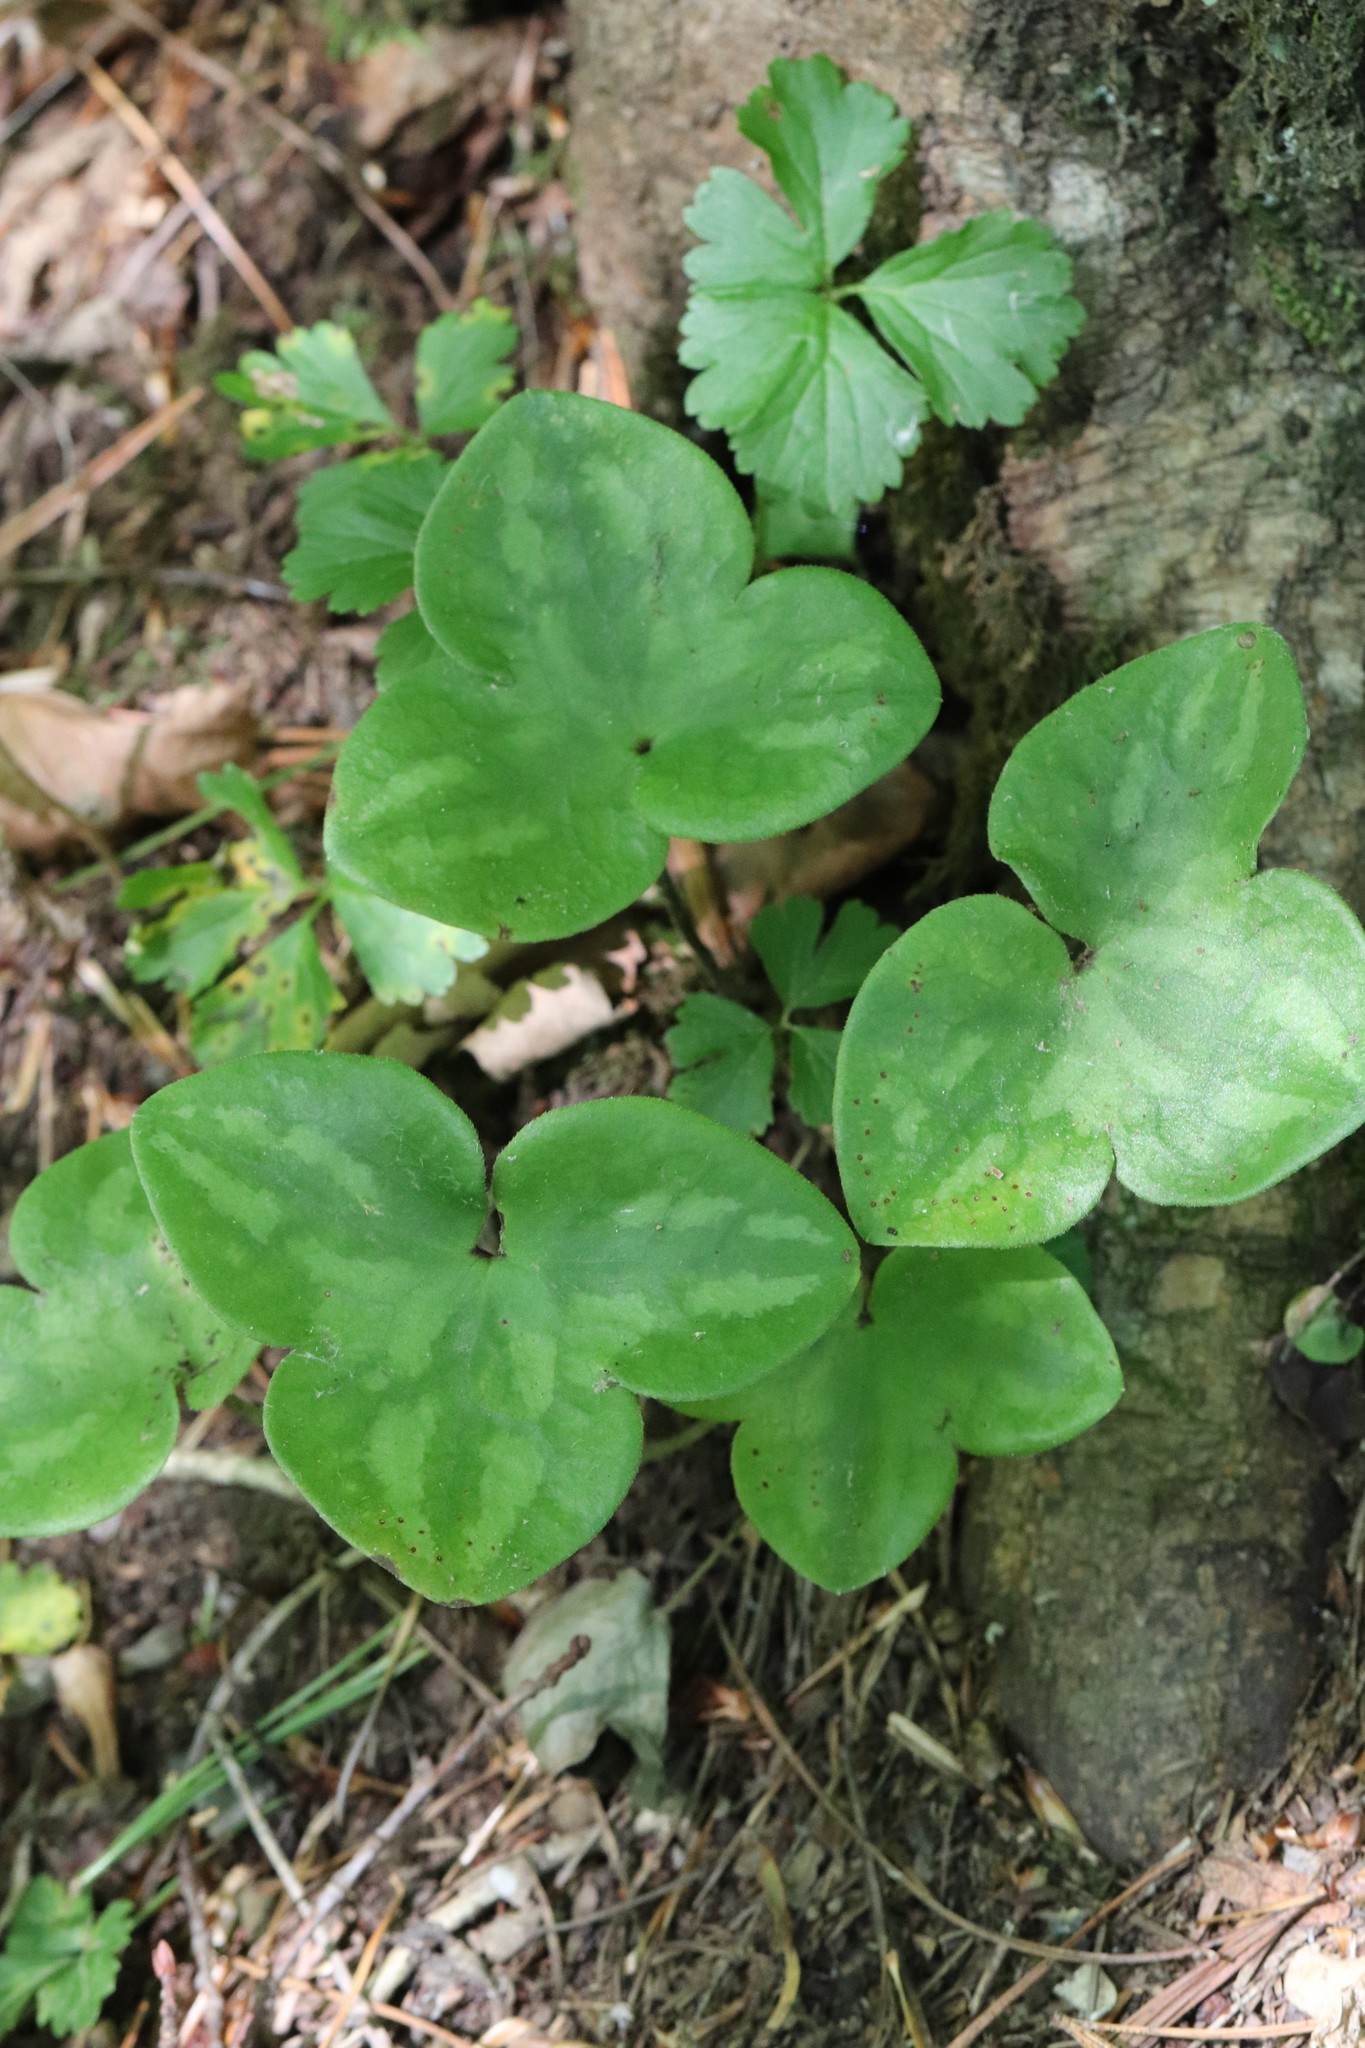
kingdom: Plantae
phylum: Tracheophyta
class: Magnoliopsida
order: Ranunculales
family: Ranunculaceae
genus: Hepatica
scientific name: Hepatica asiatica
